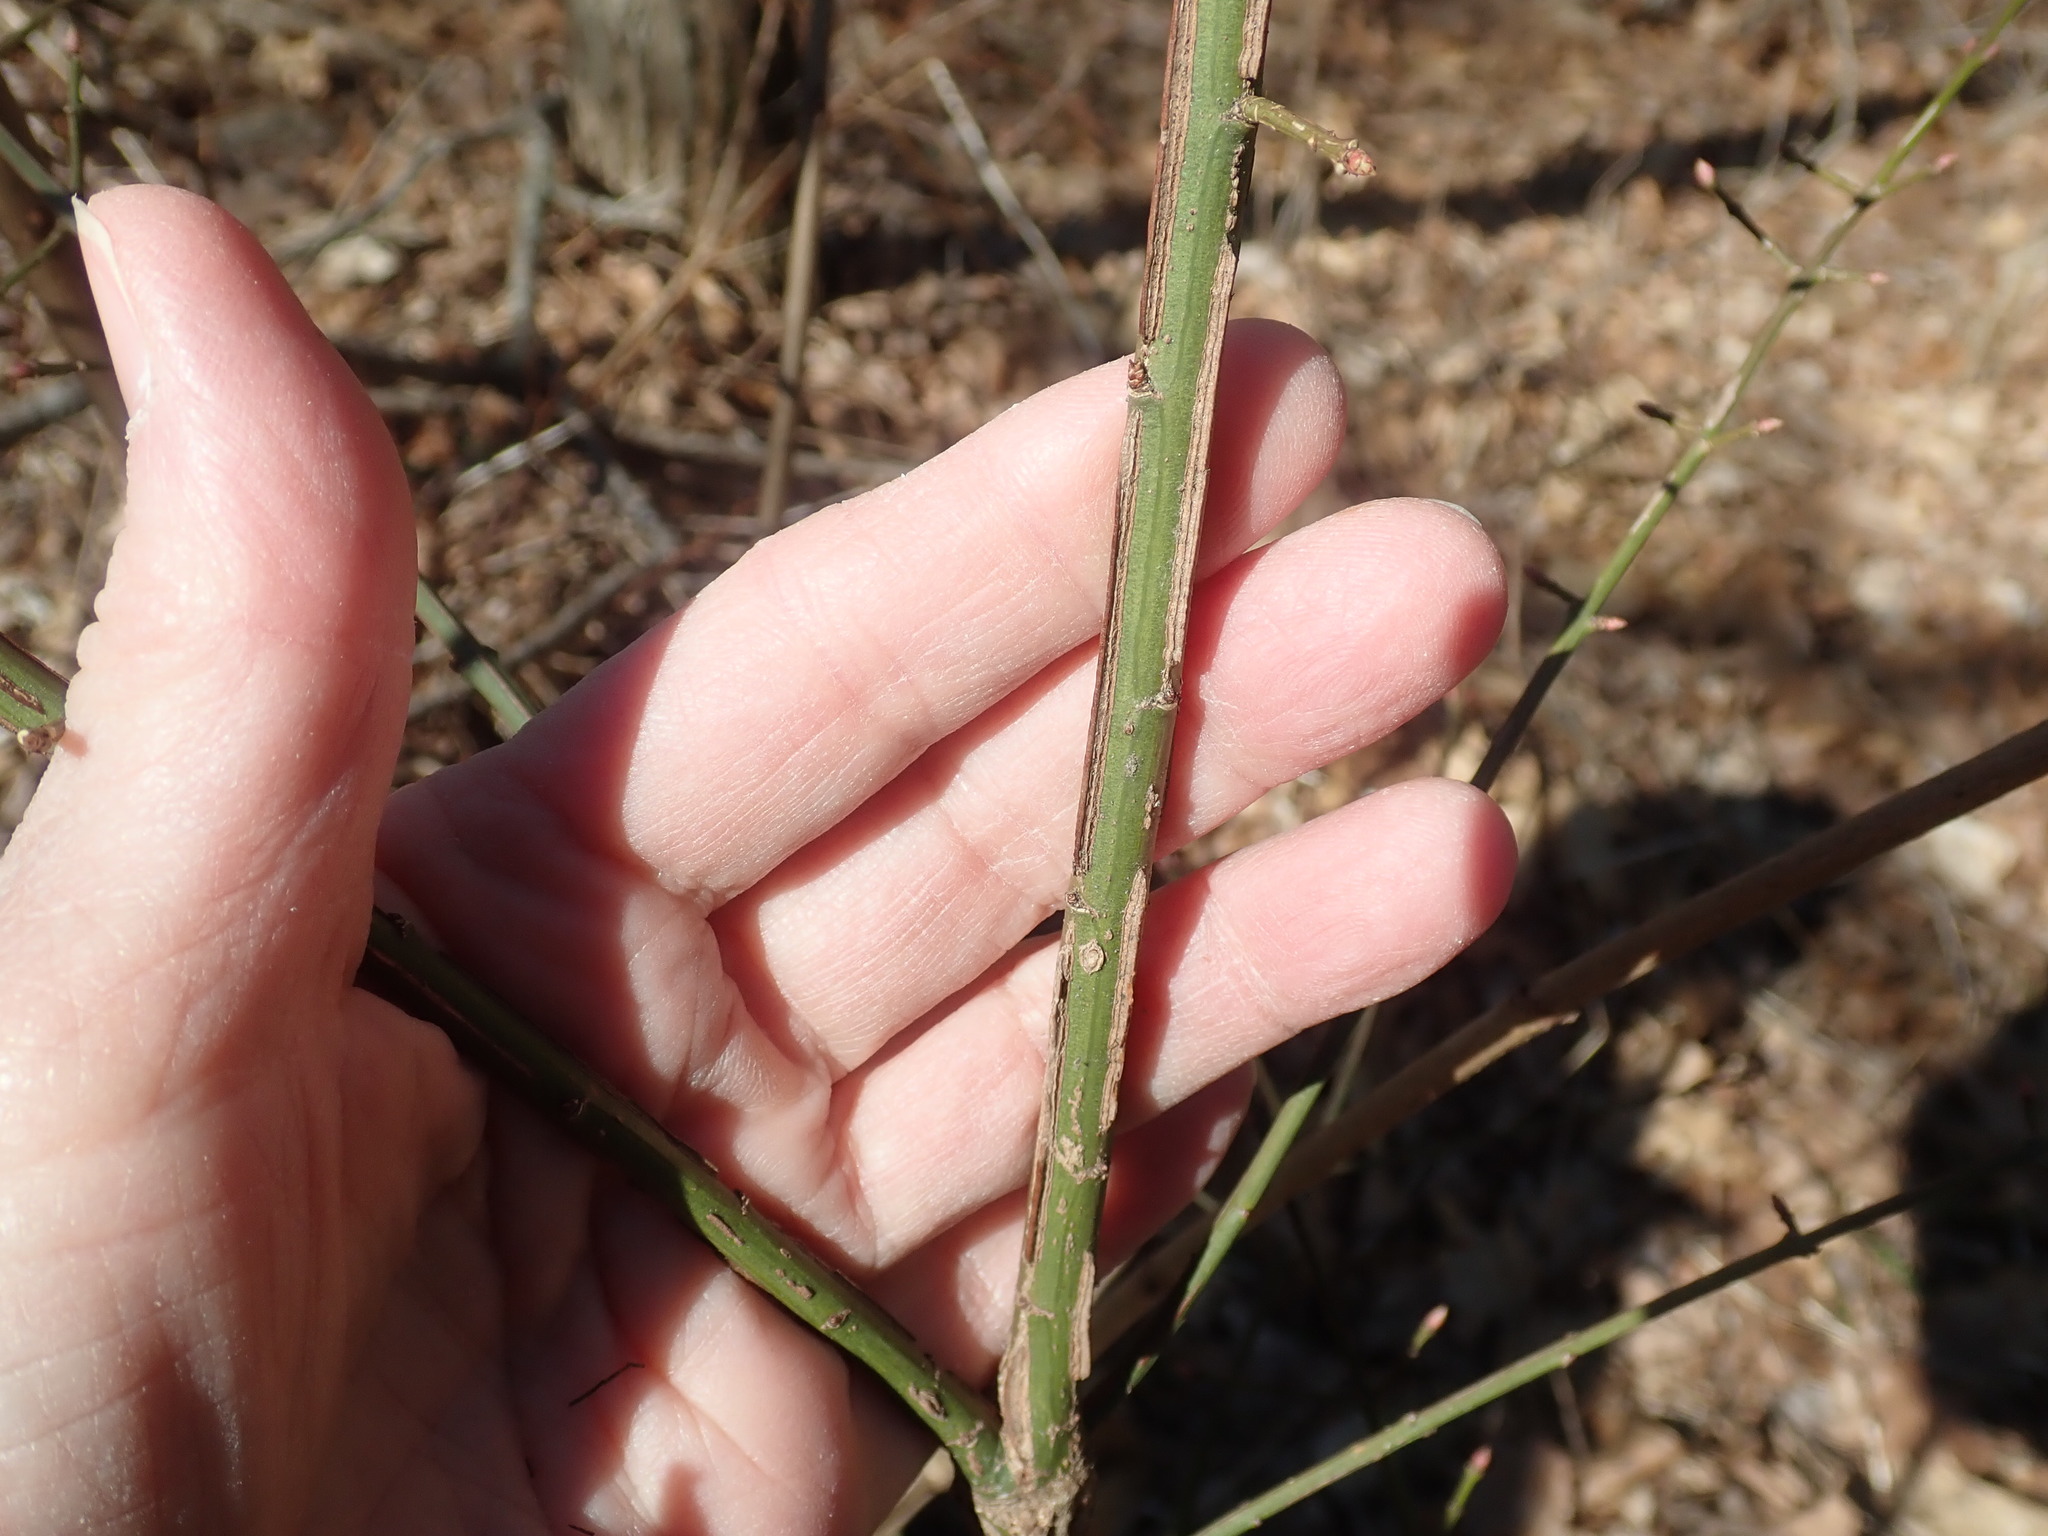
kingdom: Plantae
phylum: Tracheophyta
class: Magnoliopsida
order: Celastrales
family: Celastraceae
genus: Euonymus
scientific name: Euonymus alatus
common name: Winged euonymus
